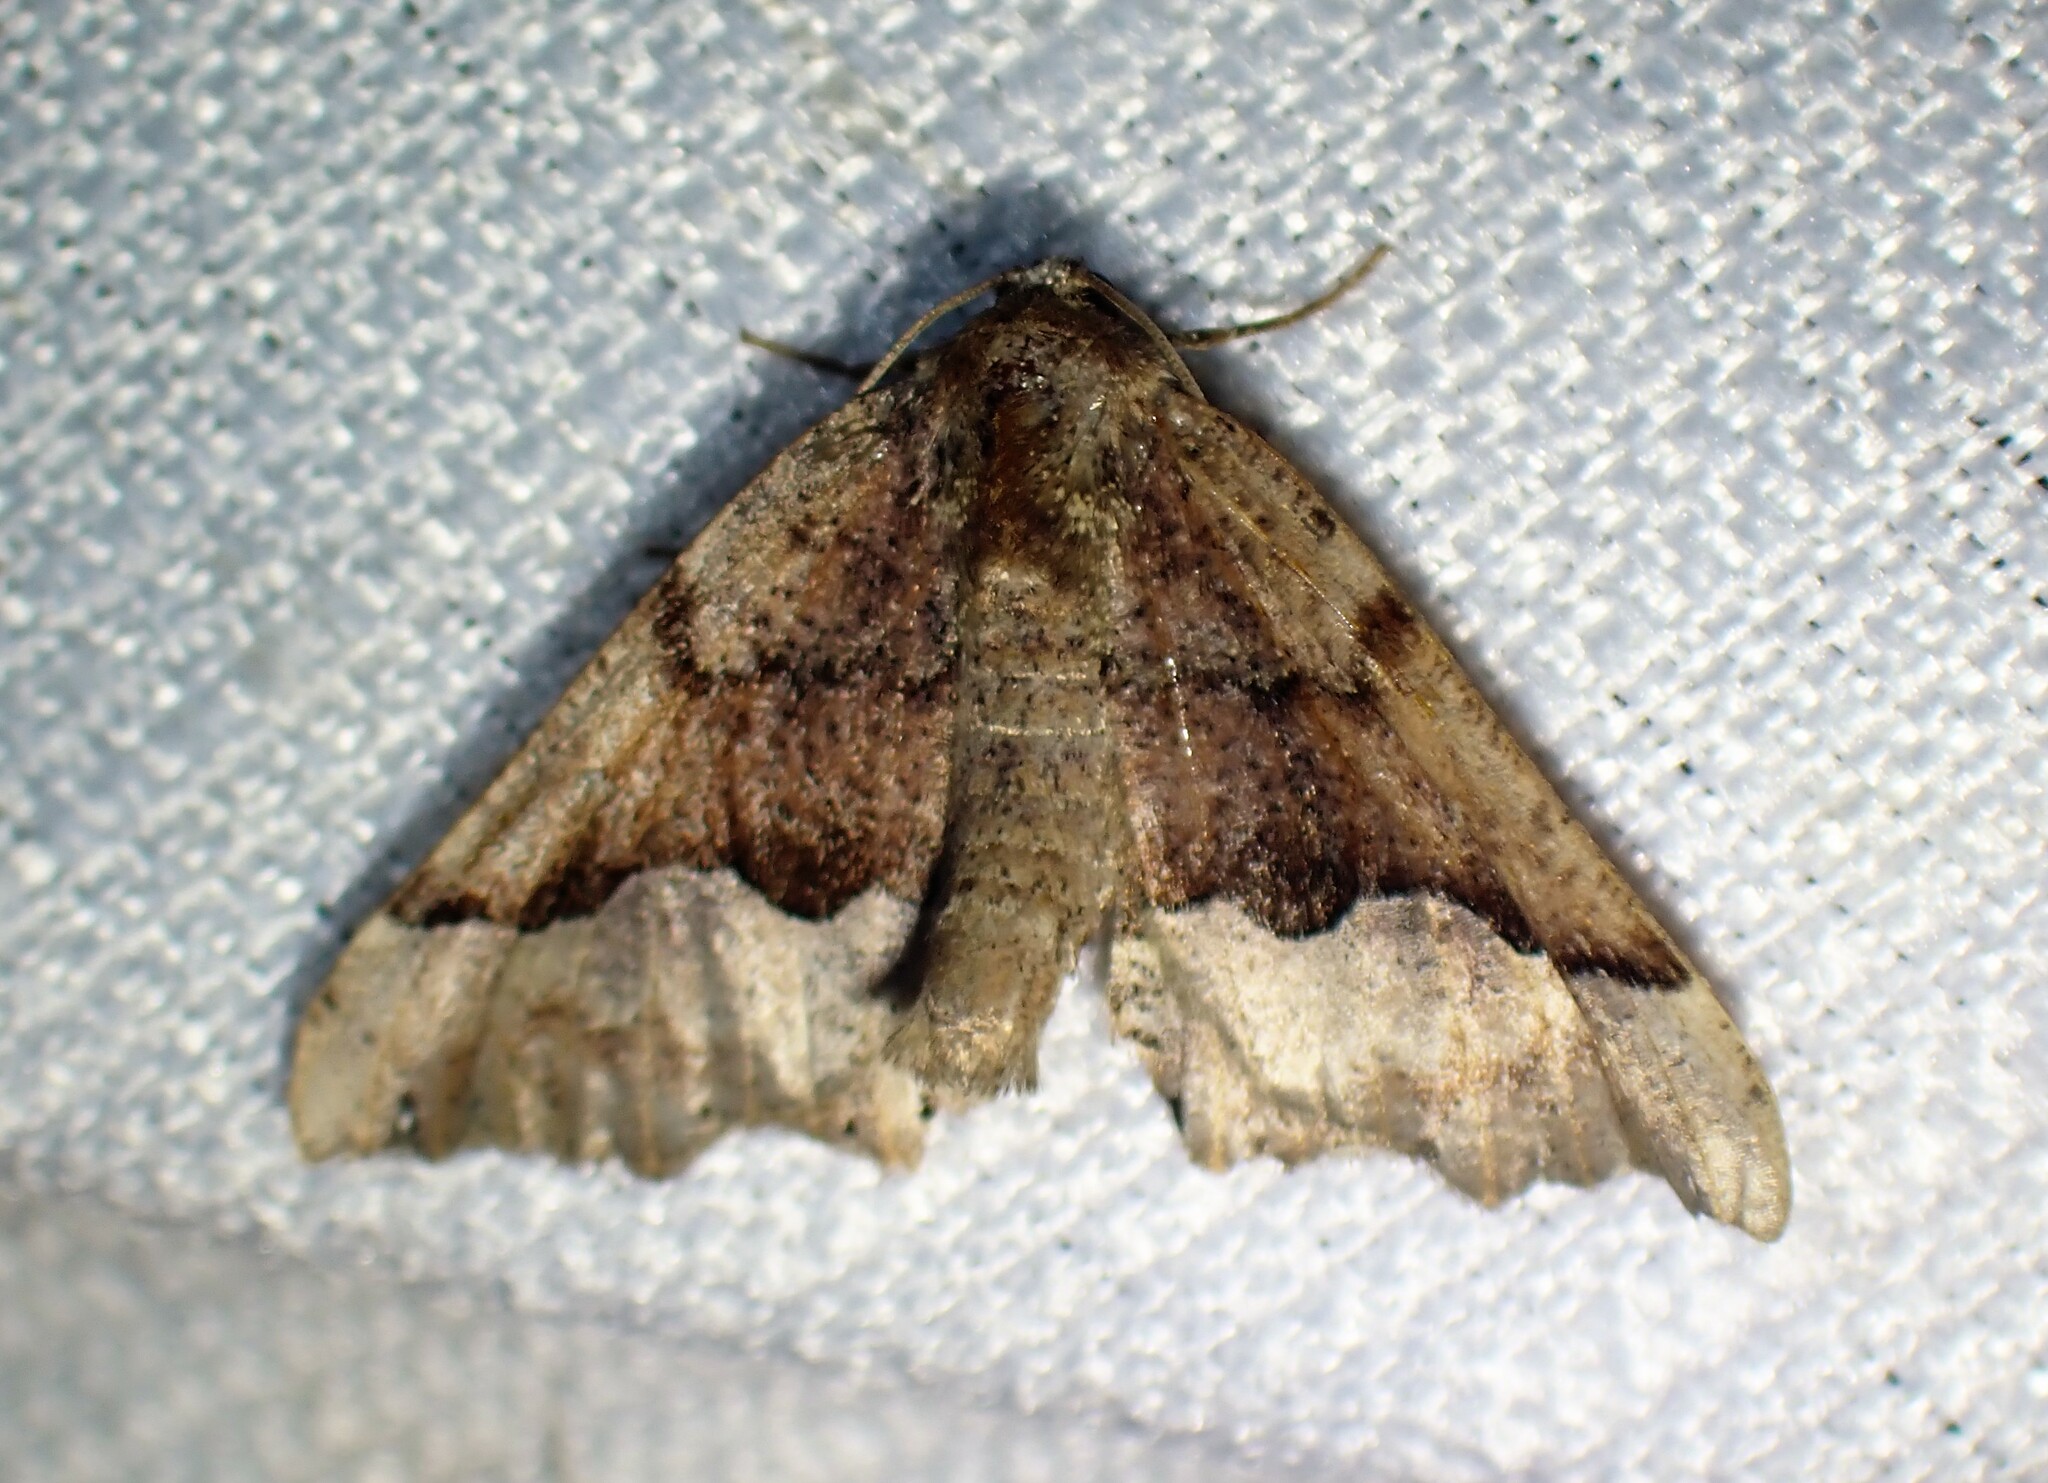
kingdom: Animalia
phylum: Arthropoda
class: Insecta
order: Lepidoptera
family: Geometridae
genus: Pero
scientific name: Pero morrisonaria
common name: Morrison's pero
